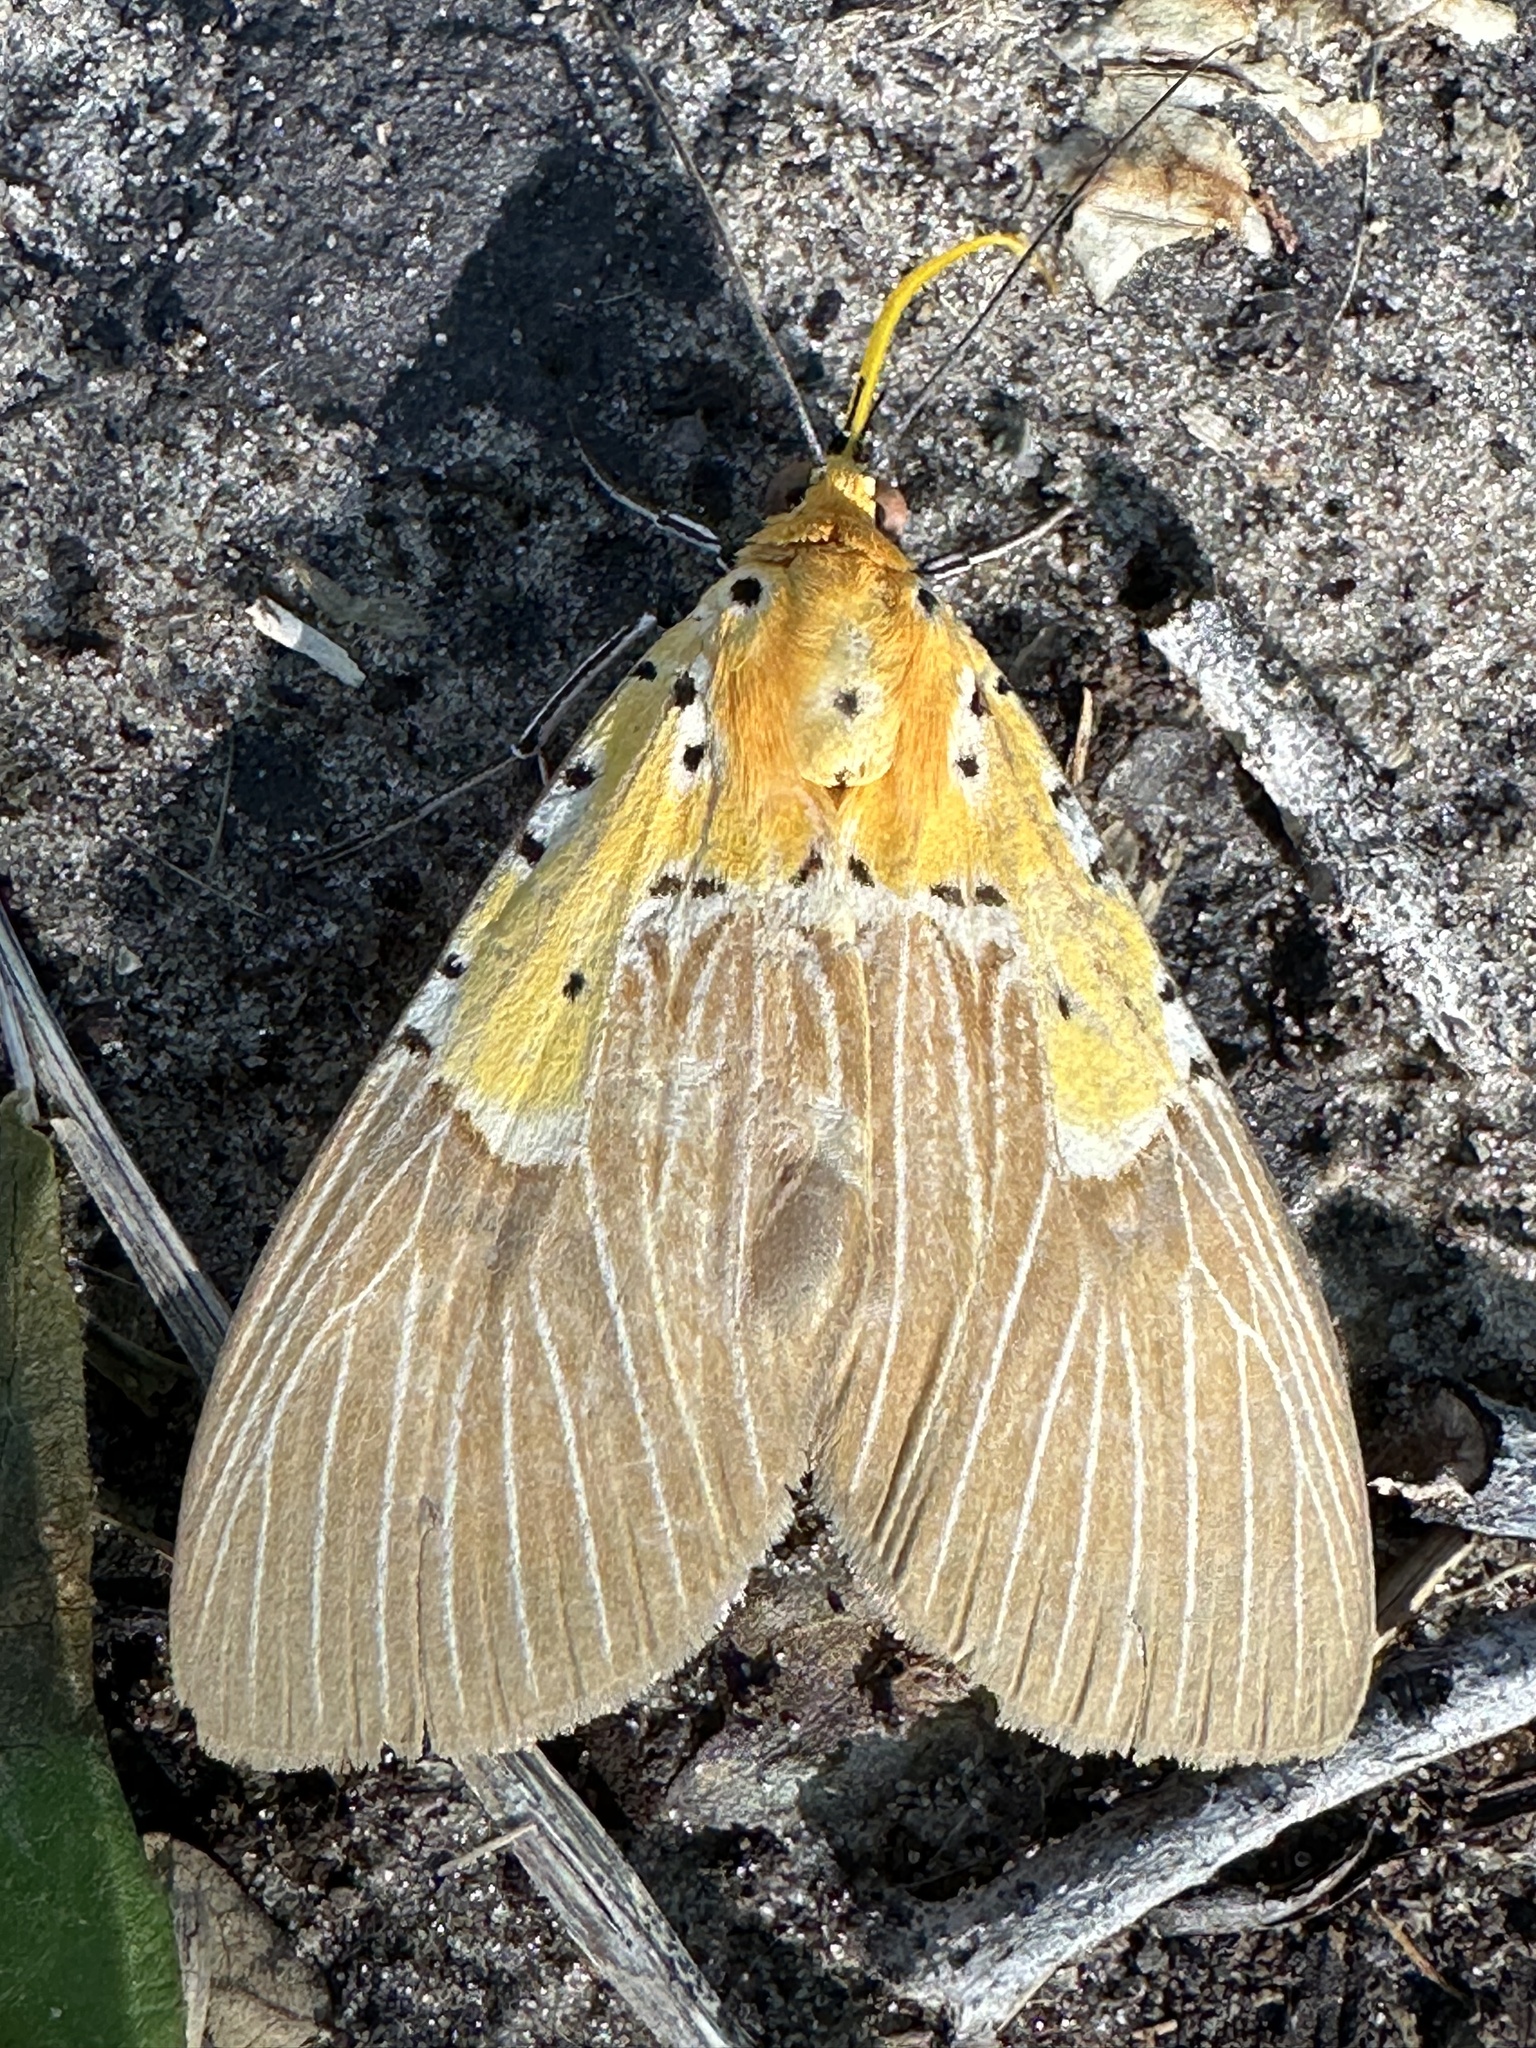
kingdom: Animalia
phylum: Arthropoda
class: Insecta
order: Lepidoptera
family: Erebidae
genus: Asota
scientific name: Asota speciosa
